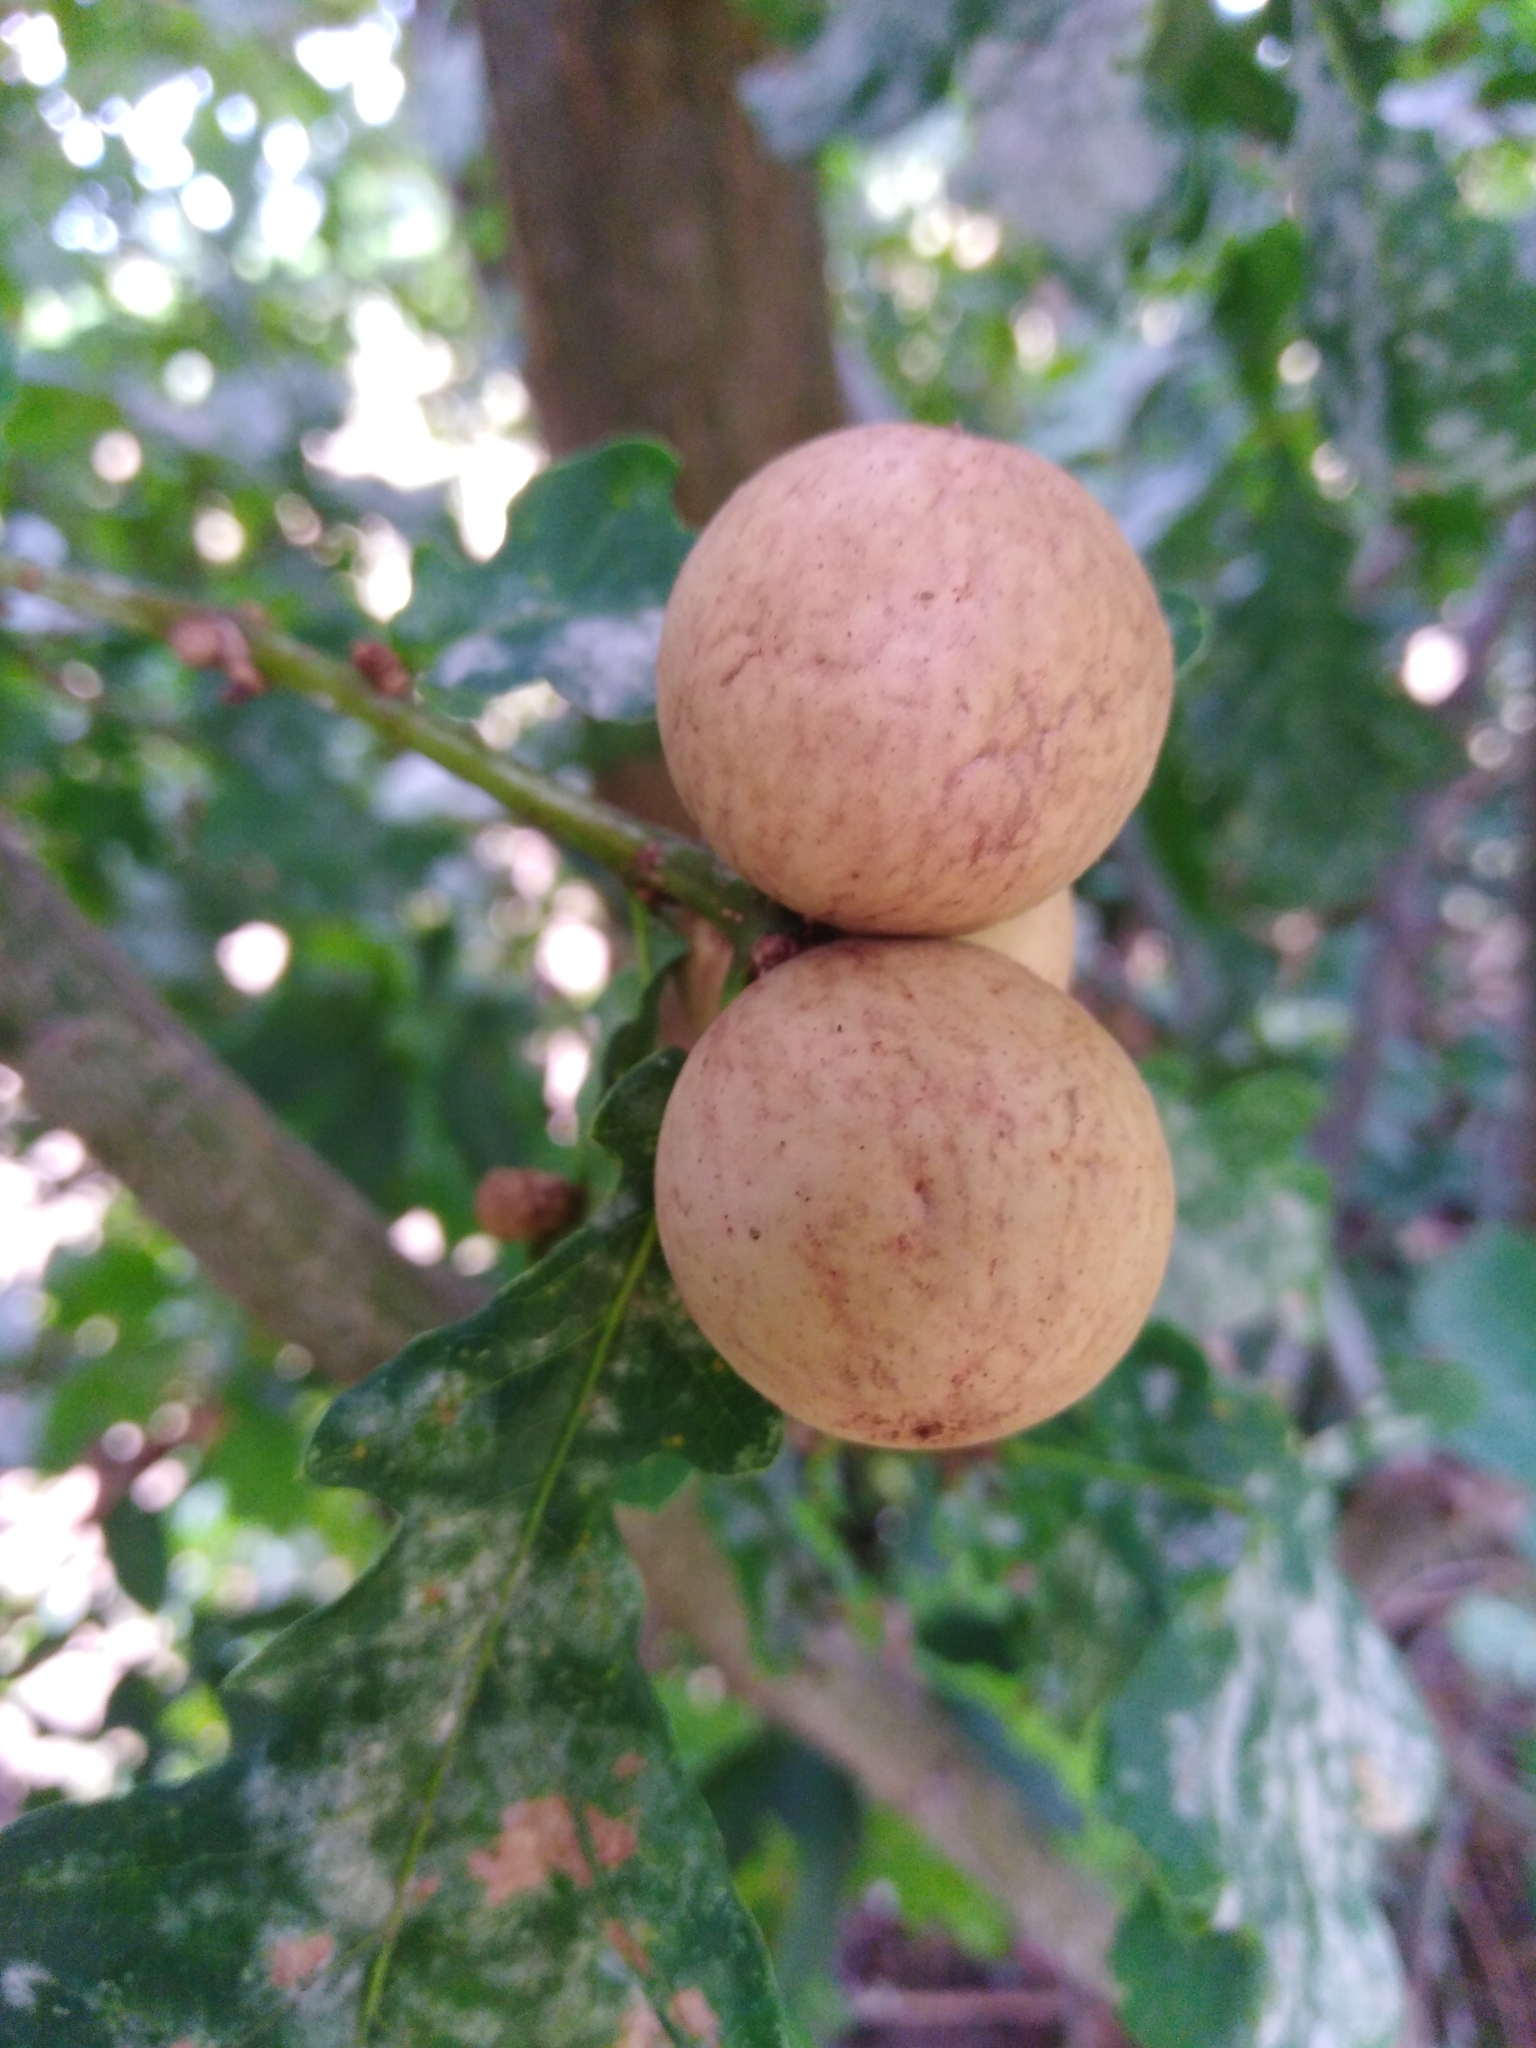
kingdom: Animalia
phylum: Arthropoda
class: Insecta
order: Hymenoptera
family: Cynipidae
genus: Andricus
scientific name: Andricus kollari
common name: Marble gall
